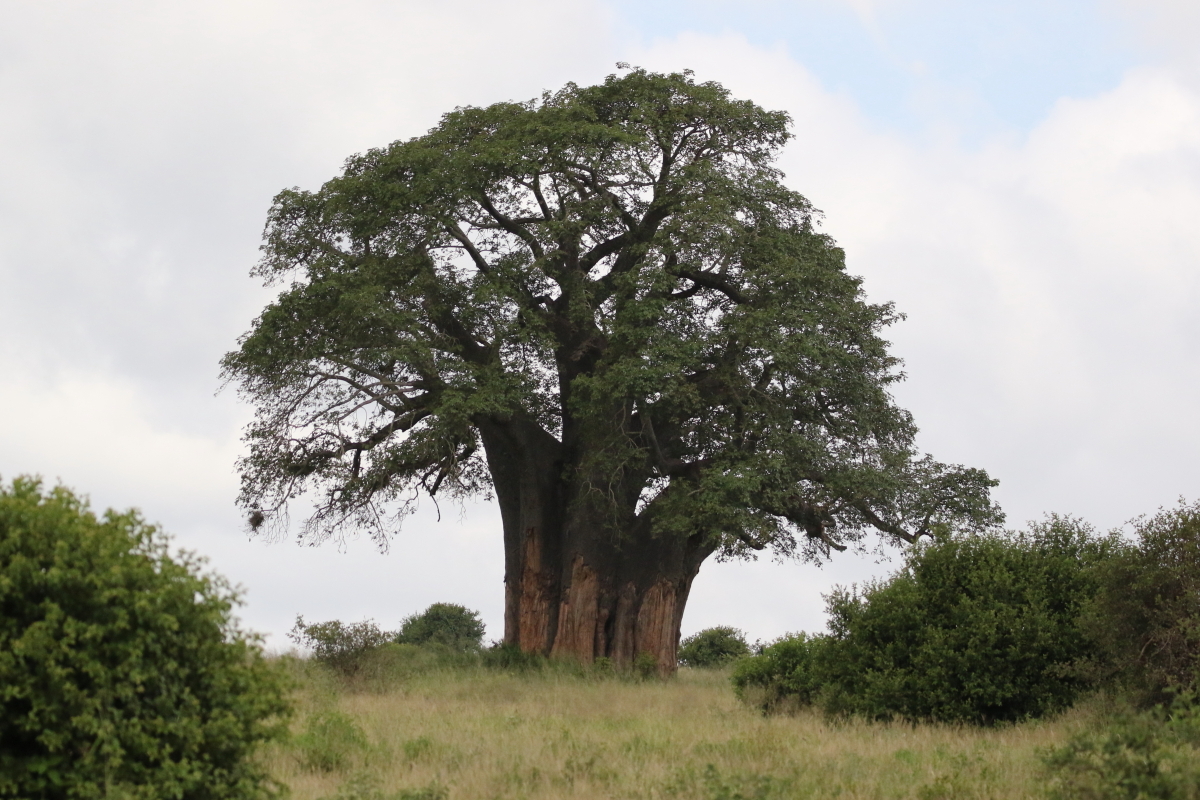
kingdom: Plantae
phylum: Tracheophyta
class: Magnoliopsida
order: Malvales
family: Malvaceae
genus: Adansonia
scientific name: Adansonia digitata
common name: Dead-rat-tree
